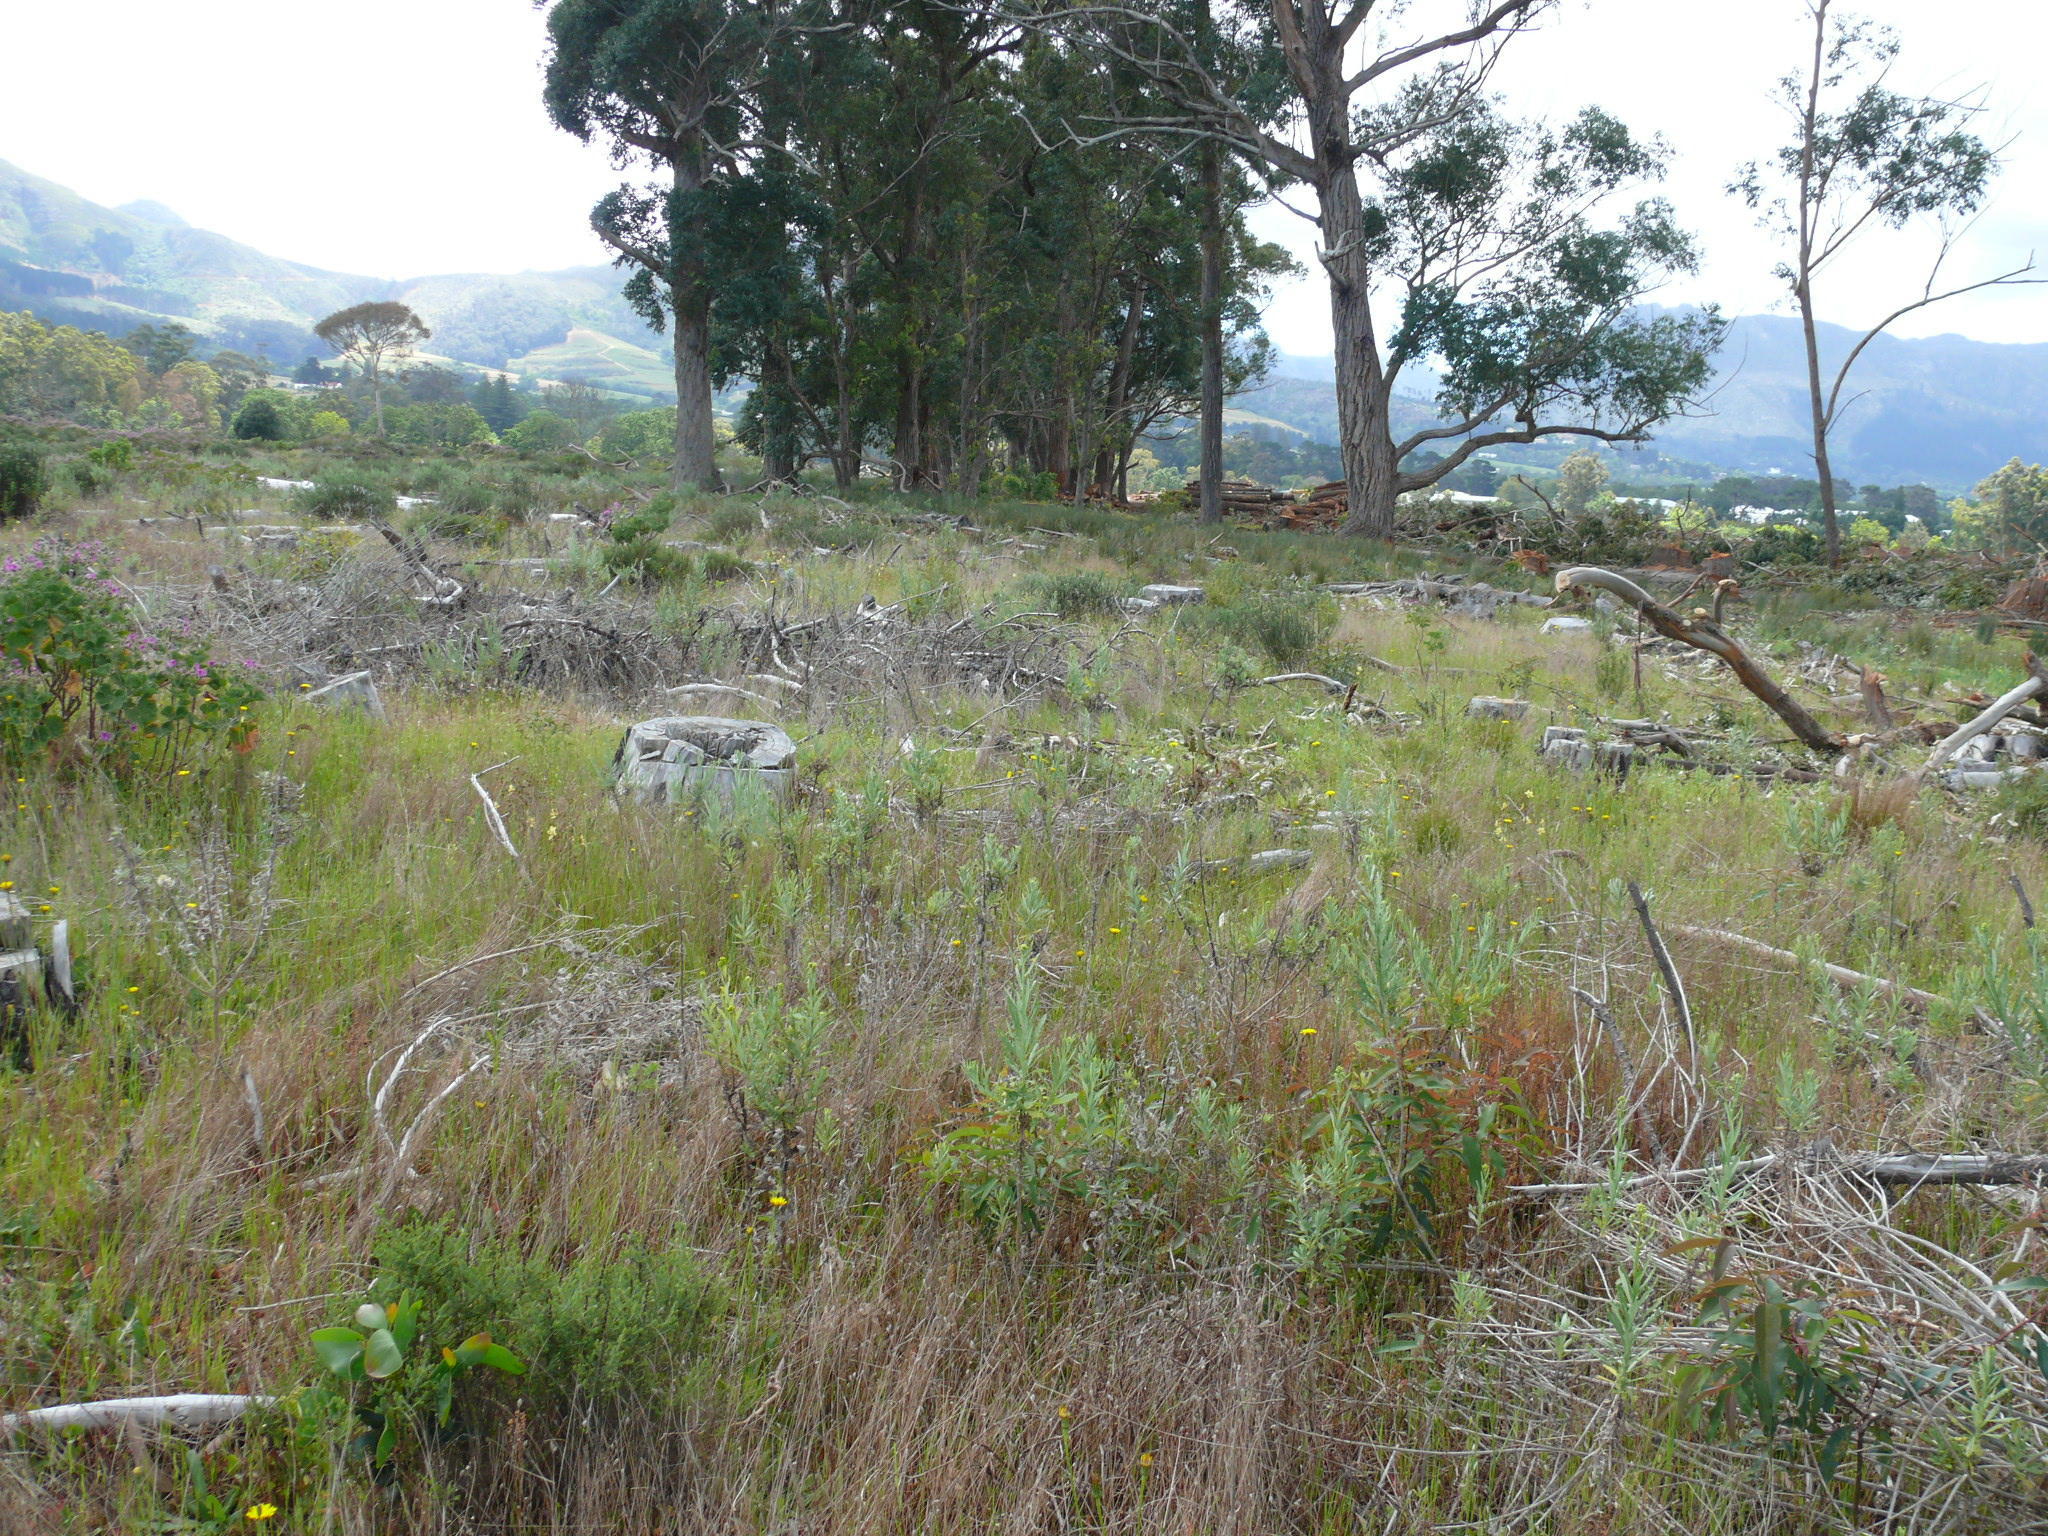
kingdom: Plantae
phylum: Tracheophyta
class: Magnoliopsida
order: Myrtales
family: Myrtaceae
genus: Eucalyptus
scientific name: Eucalyptus botryoides
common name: Bangalay
